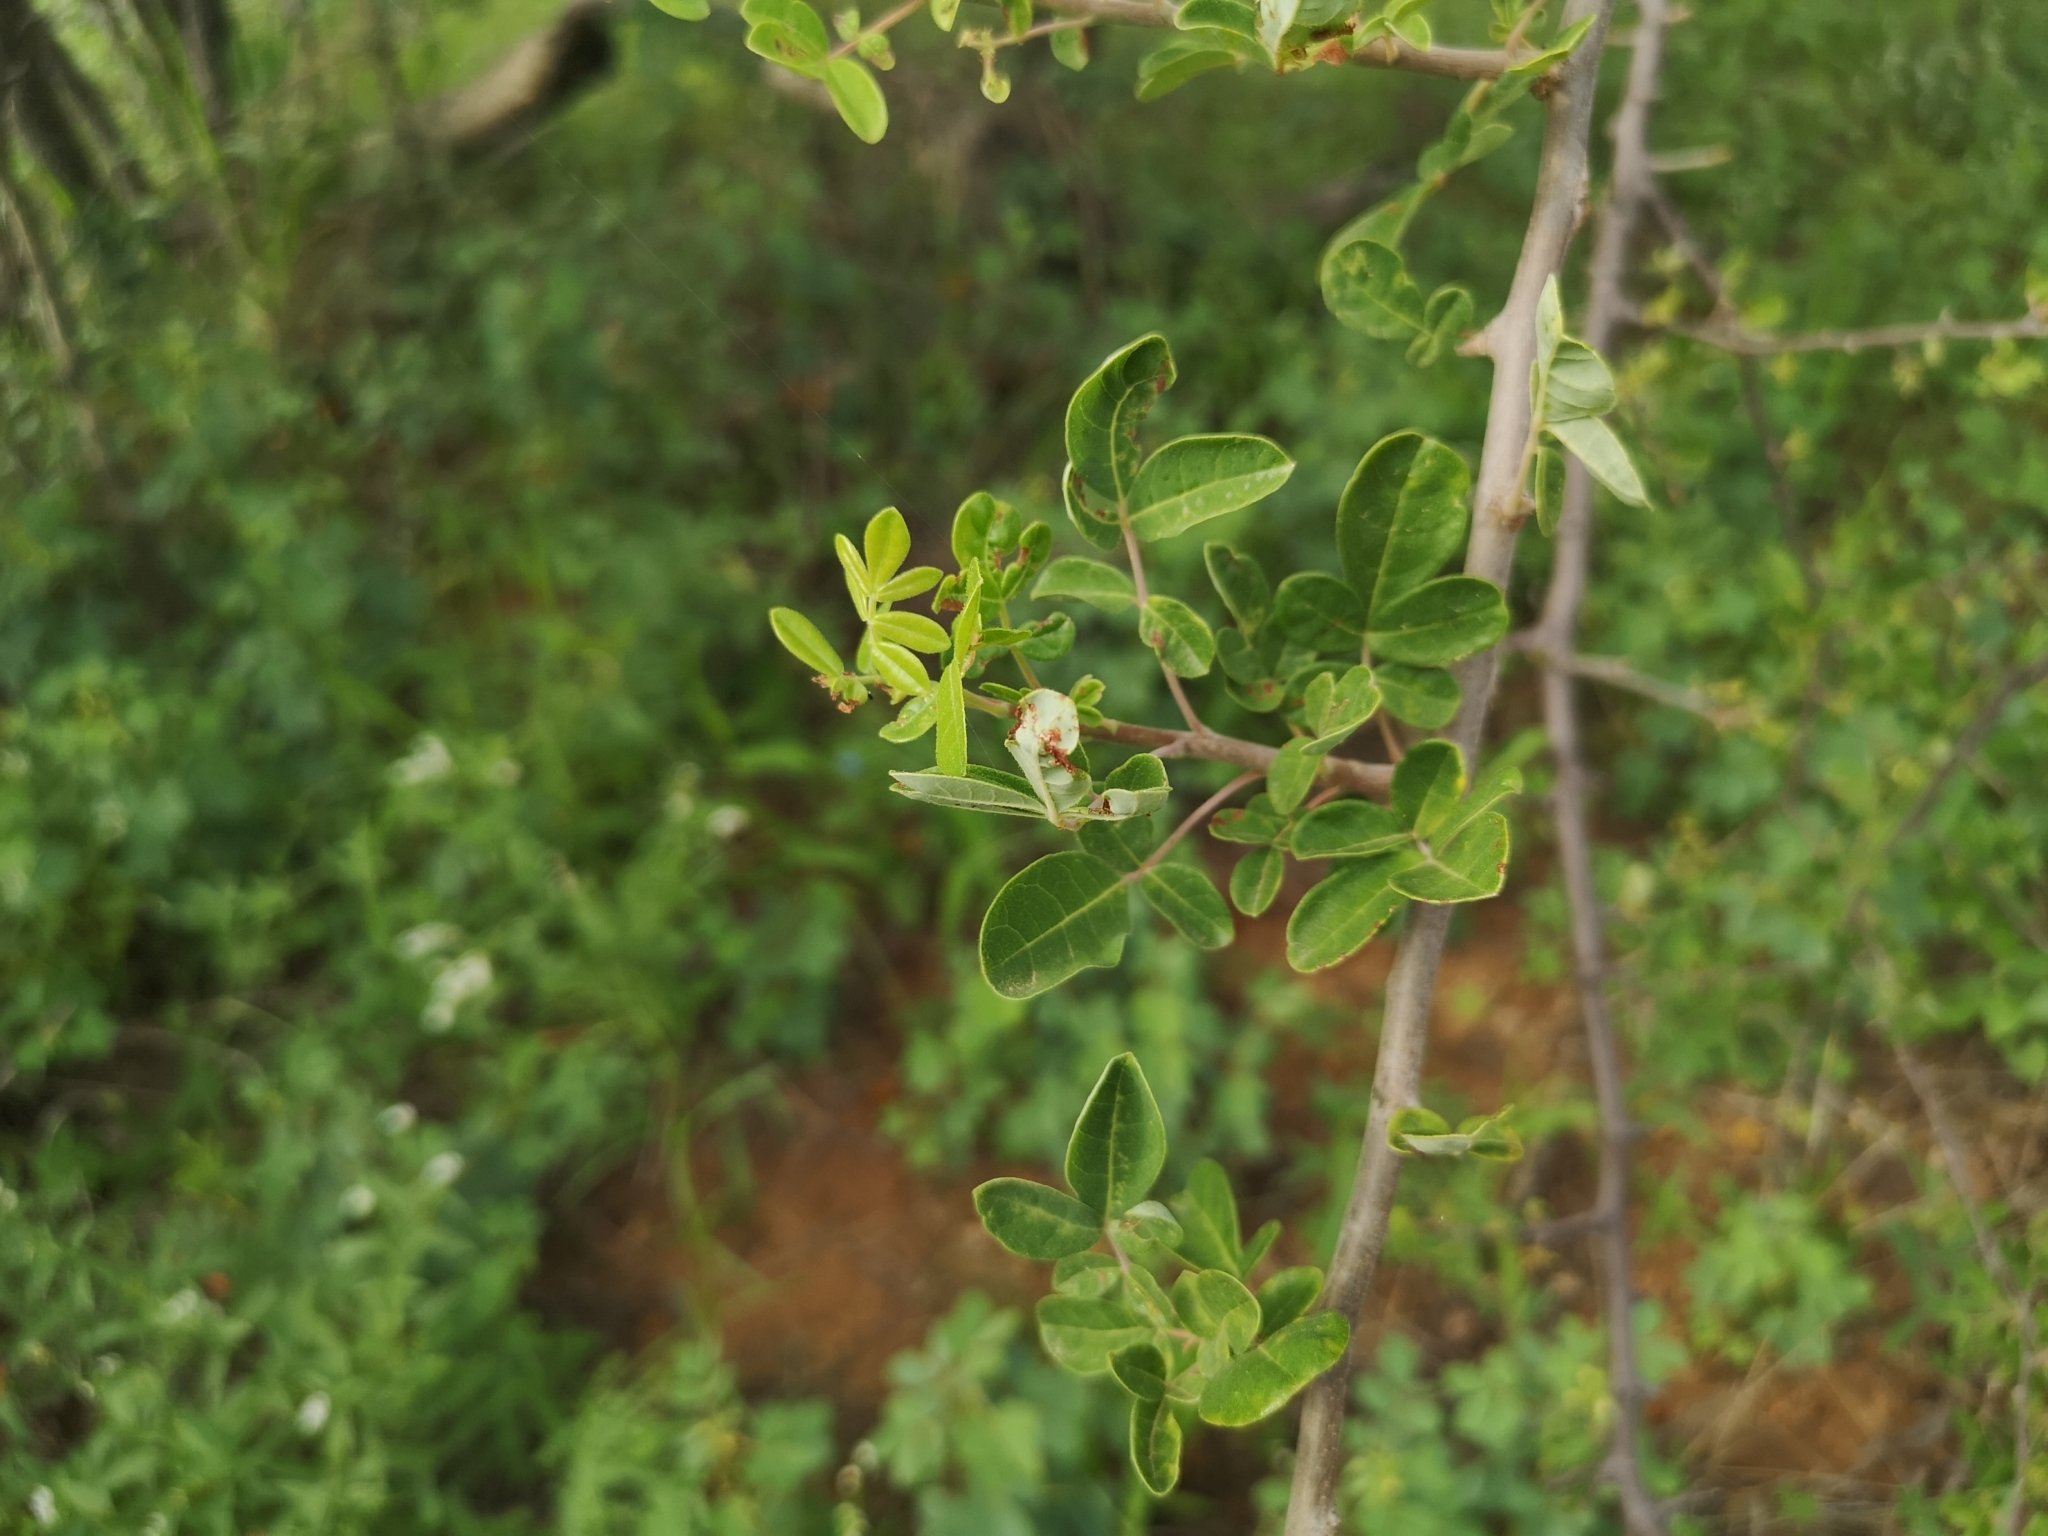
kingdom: Plantae
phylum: Tracheophyta
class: Magnoliopsida
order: Sapindales
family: Burseraceae
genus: Commiphora
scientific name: Commiphora mollis
